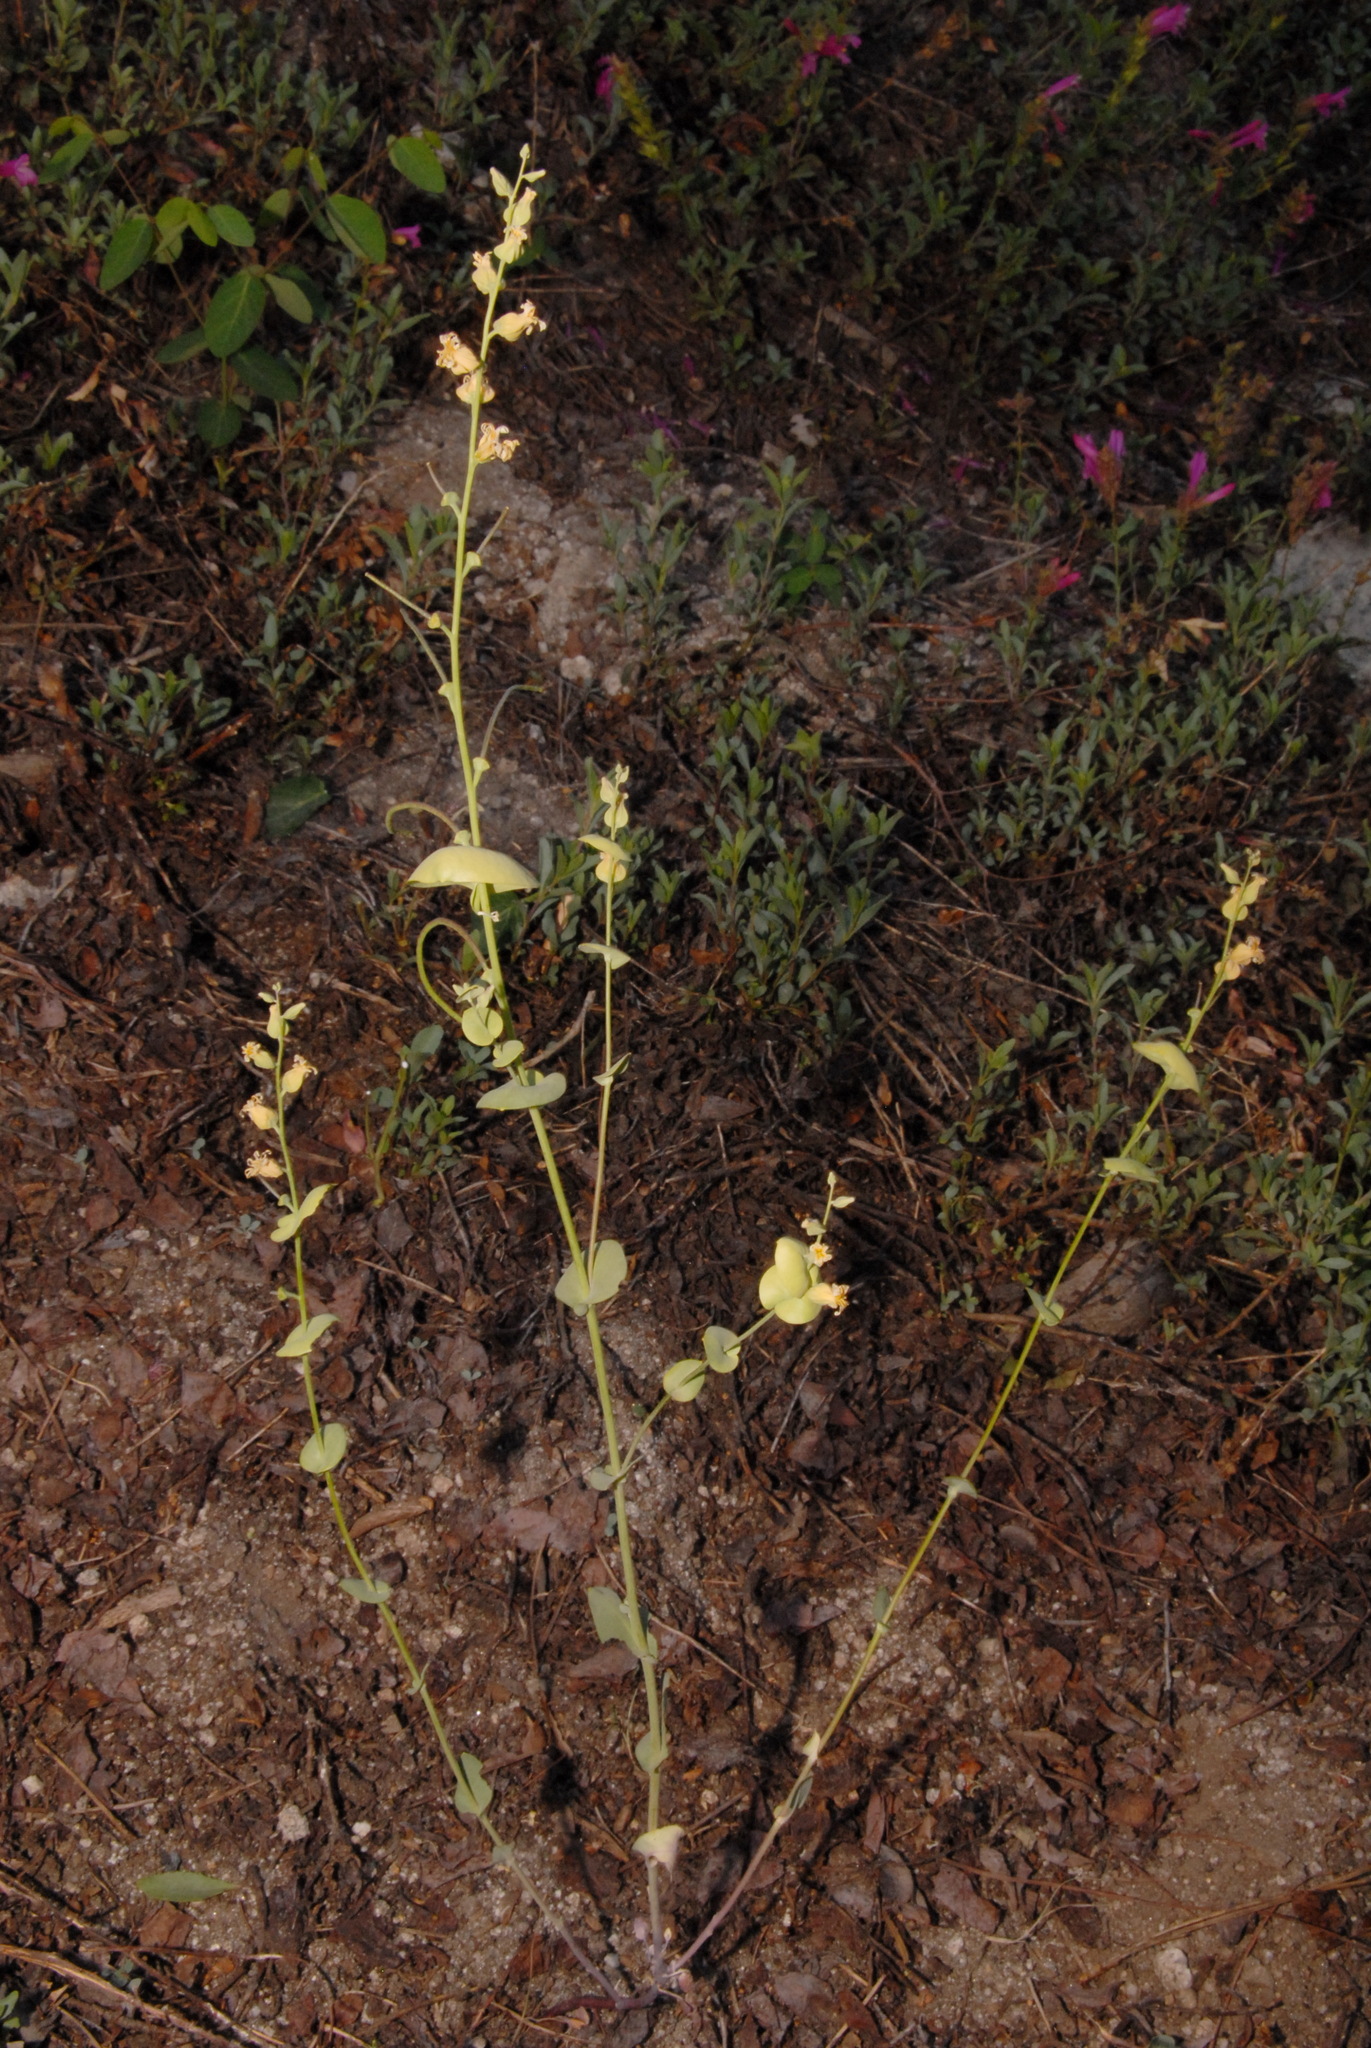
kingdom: Plantae
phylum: Tracheophyta
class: Magnoliopsida
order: Brassicales
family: Brassicaceae
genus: Streptanthus
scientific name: Streptanthus tortuosus
